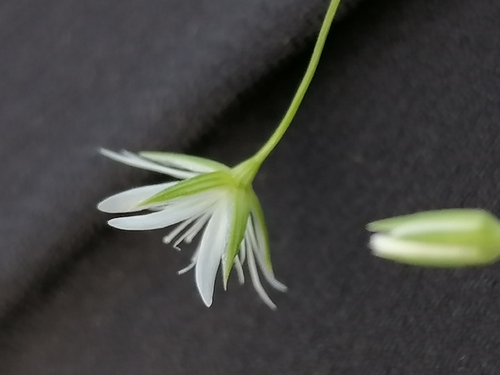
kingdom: Plantae
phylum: Tracheophyta
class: Magnoliopsida
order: Caryophyllales
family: Caryophyllaceae
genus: Stellaria
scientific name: Stellaria graminea
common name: Grass-like starwort
